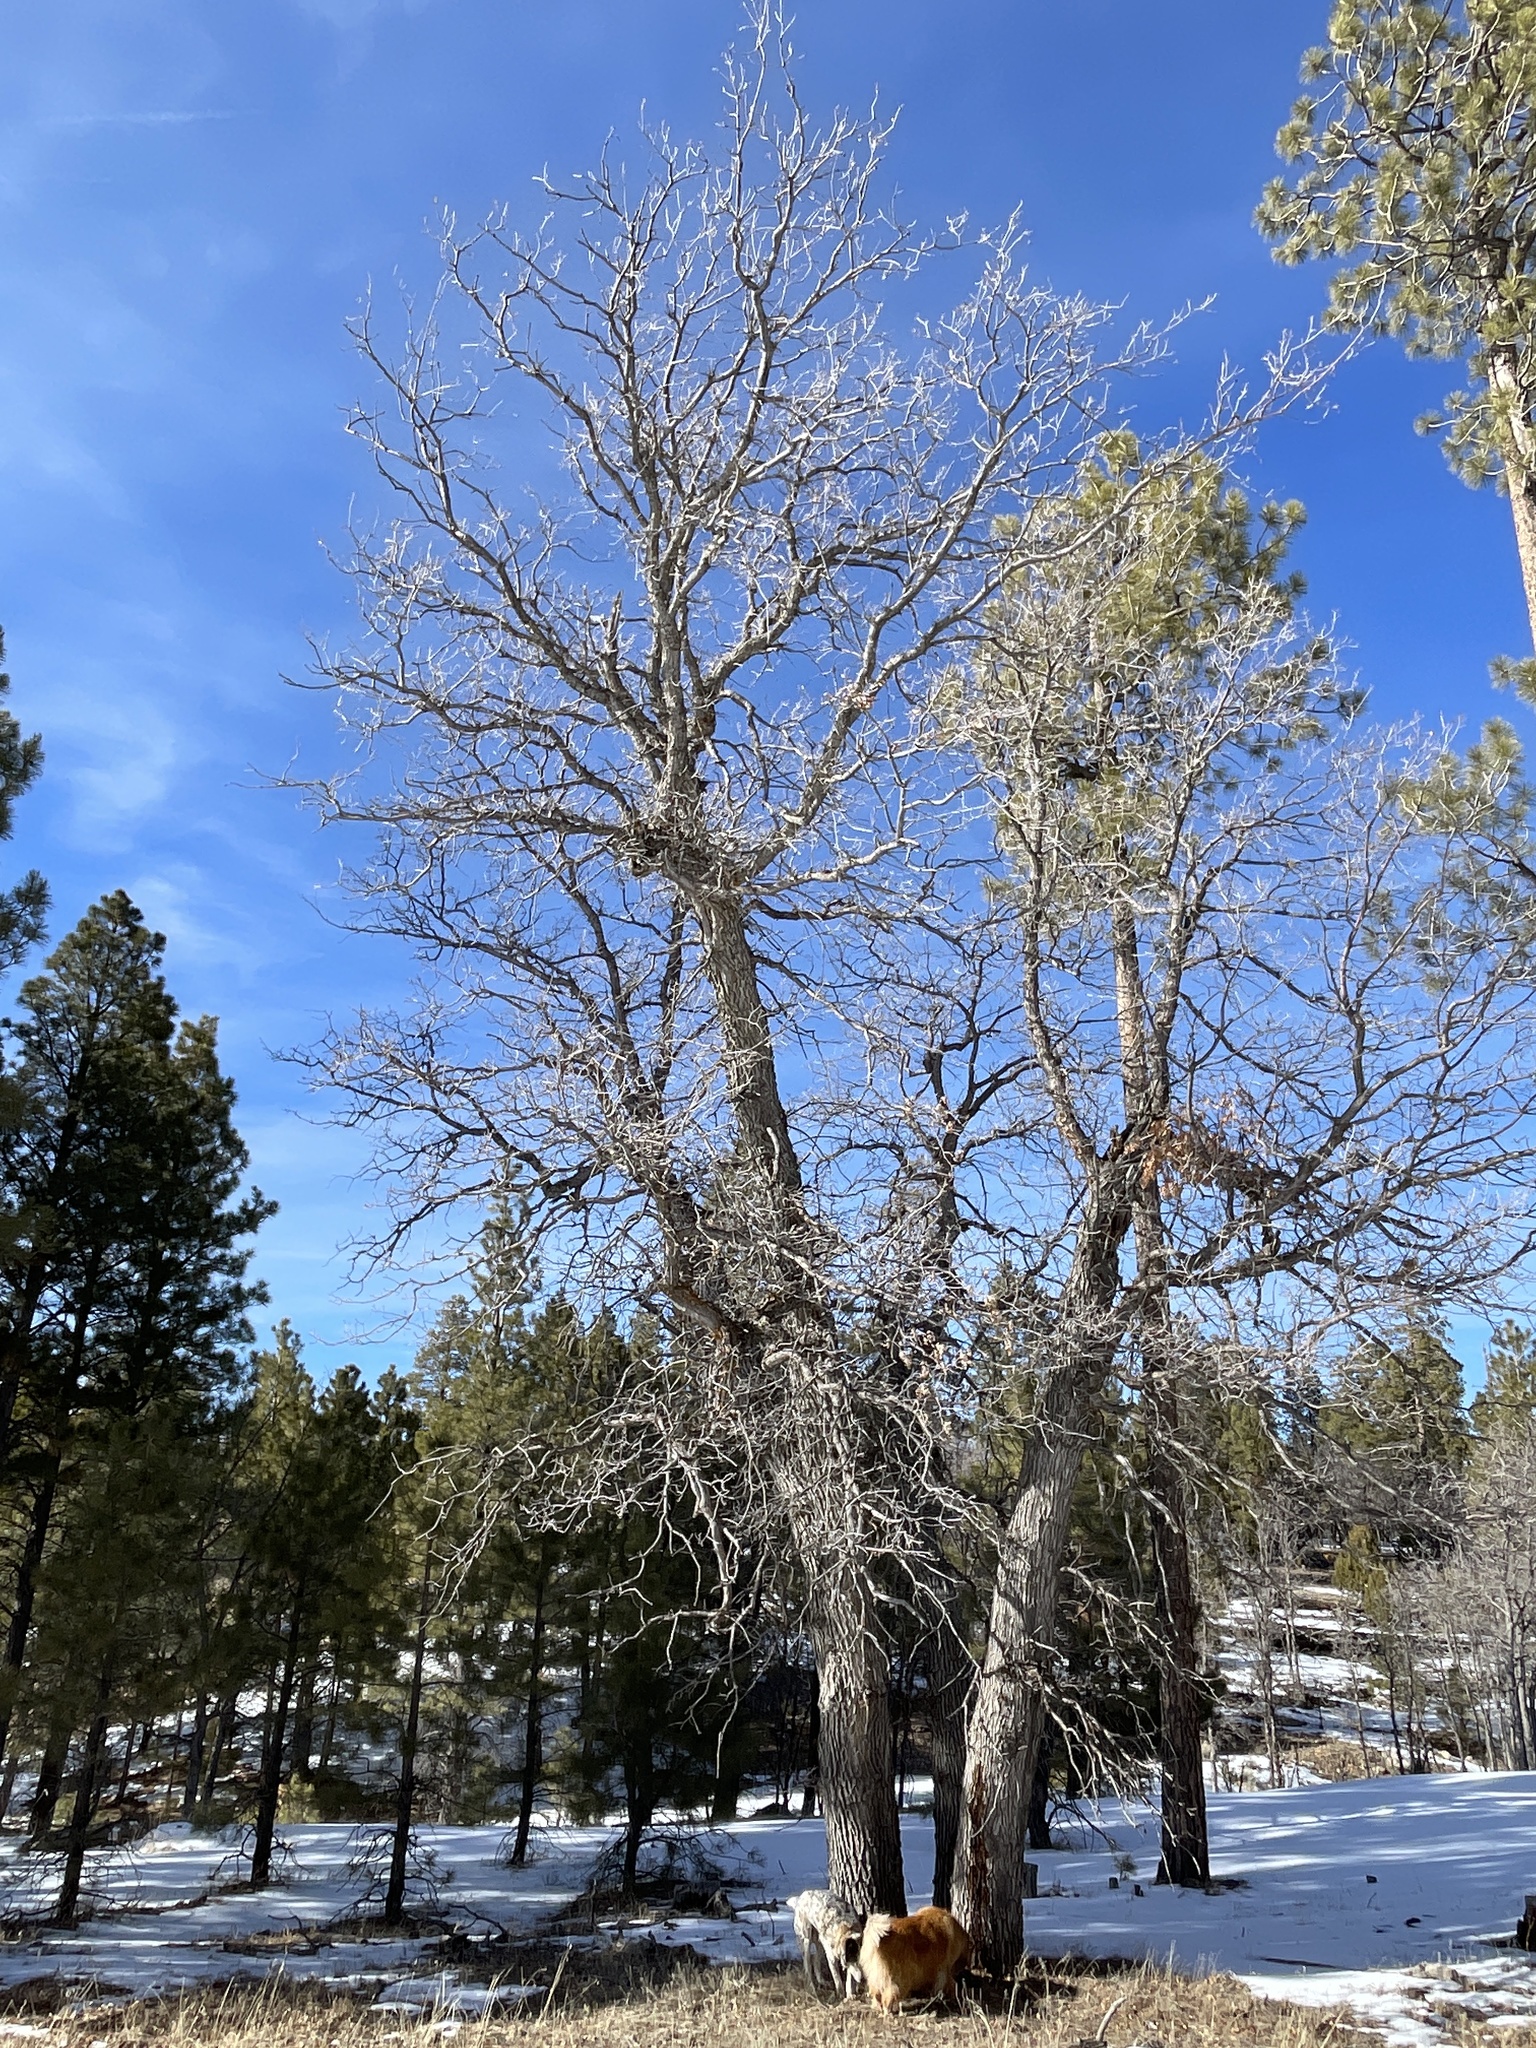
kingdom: Plantae
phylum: Tracheophyta
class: Magnoliopsida
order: Fagales
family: Fagaceae
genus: Quercus
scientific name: Quercus gambelii
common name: Gambel oak
